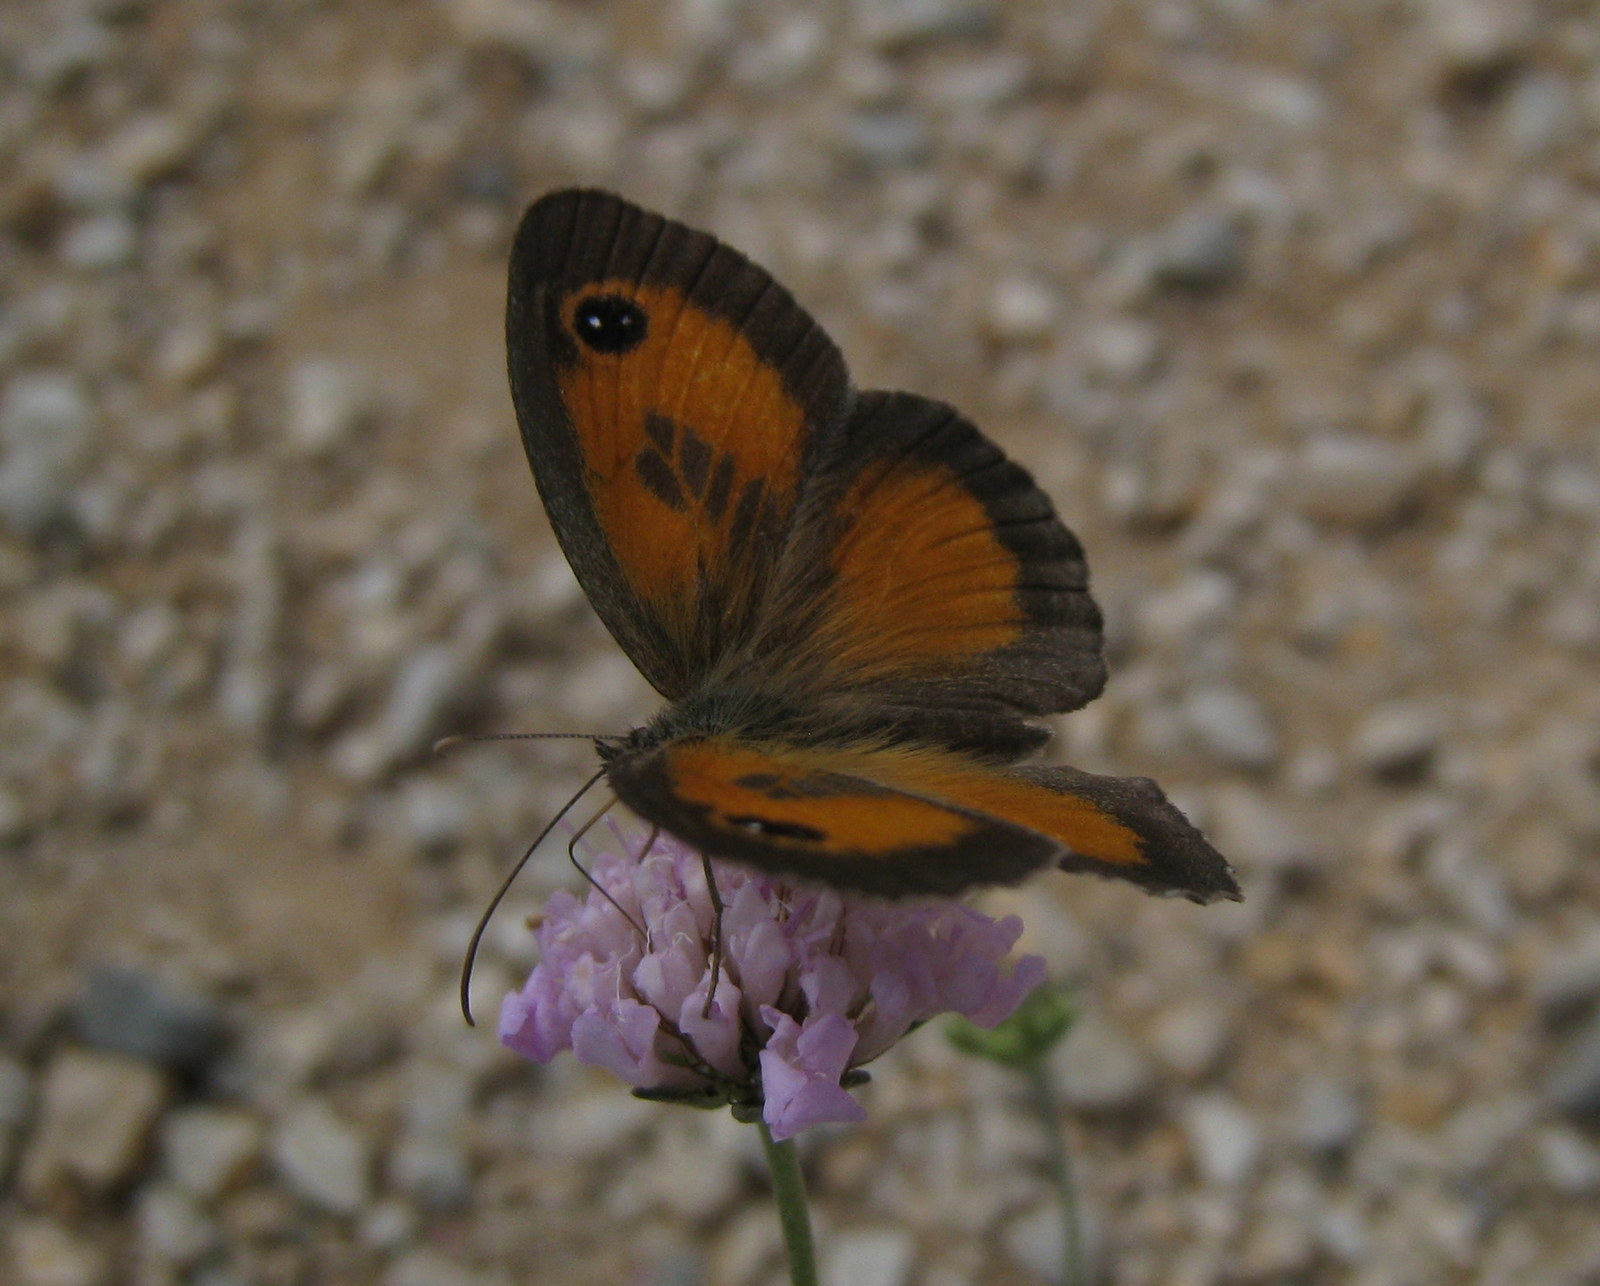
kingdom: Animalia
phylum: Arthropoda
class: Insecta
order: Lepidoptera
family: Nymphalidae
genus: Pyronia
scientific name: Pyronia cecilia
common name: Southern gatekeeper
